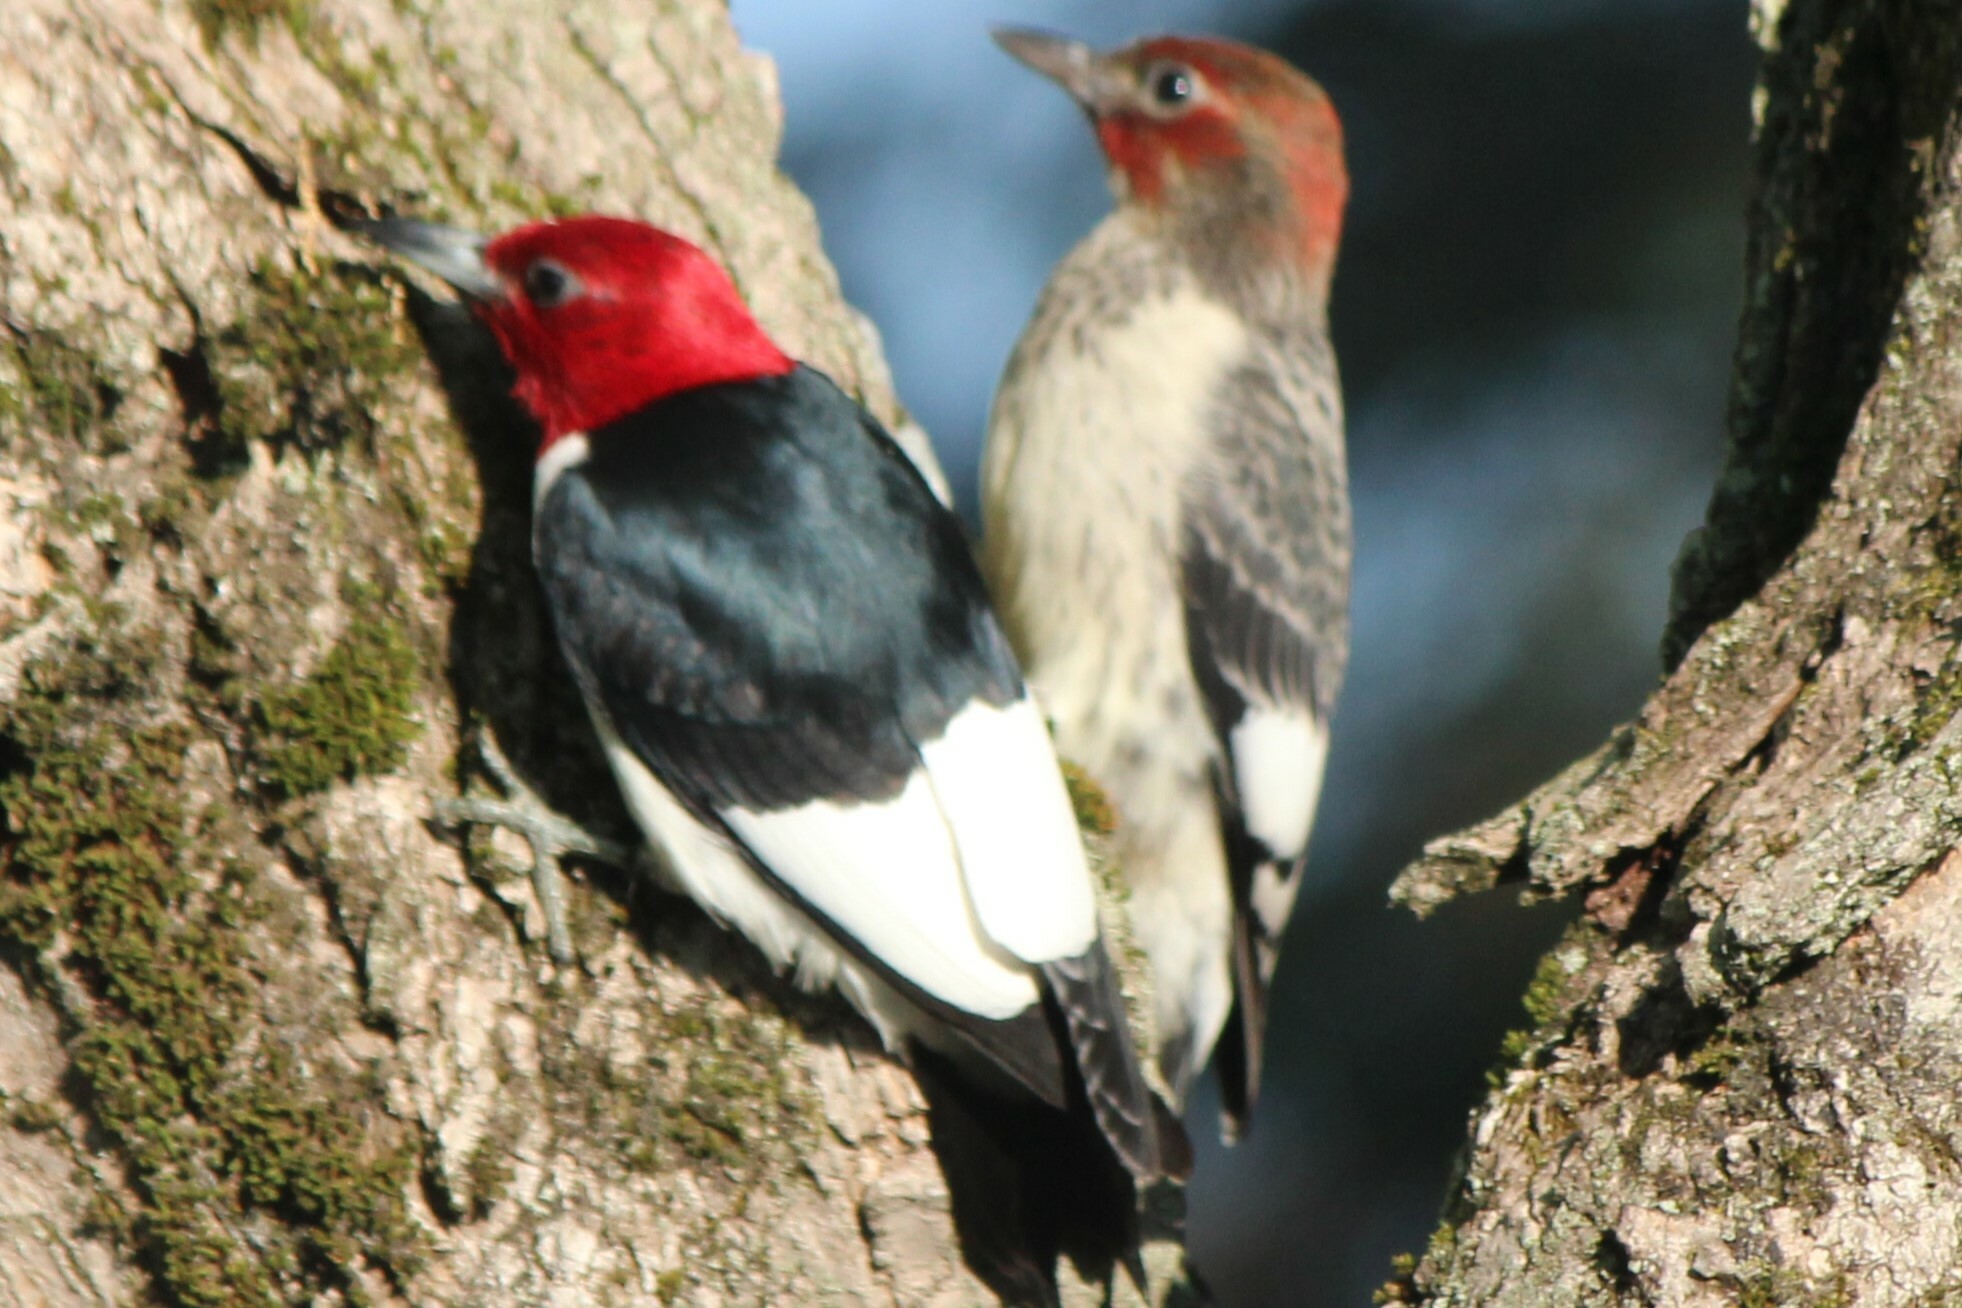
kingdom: Animalia
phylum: Chordata
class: Aves
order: Piciformes
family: Picidae
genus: Melanerpes
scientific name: Melanerpes erythrocephalus
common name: Red-headed woodpecker
